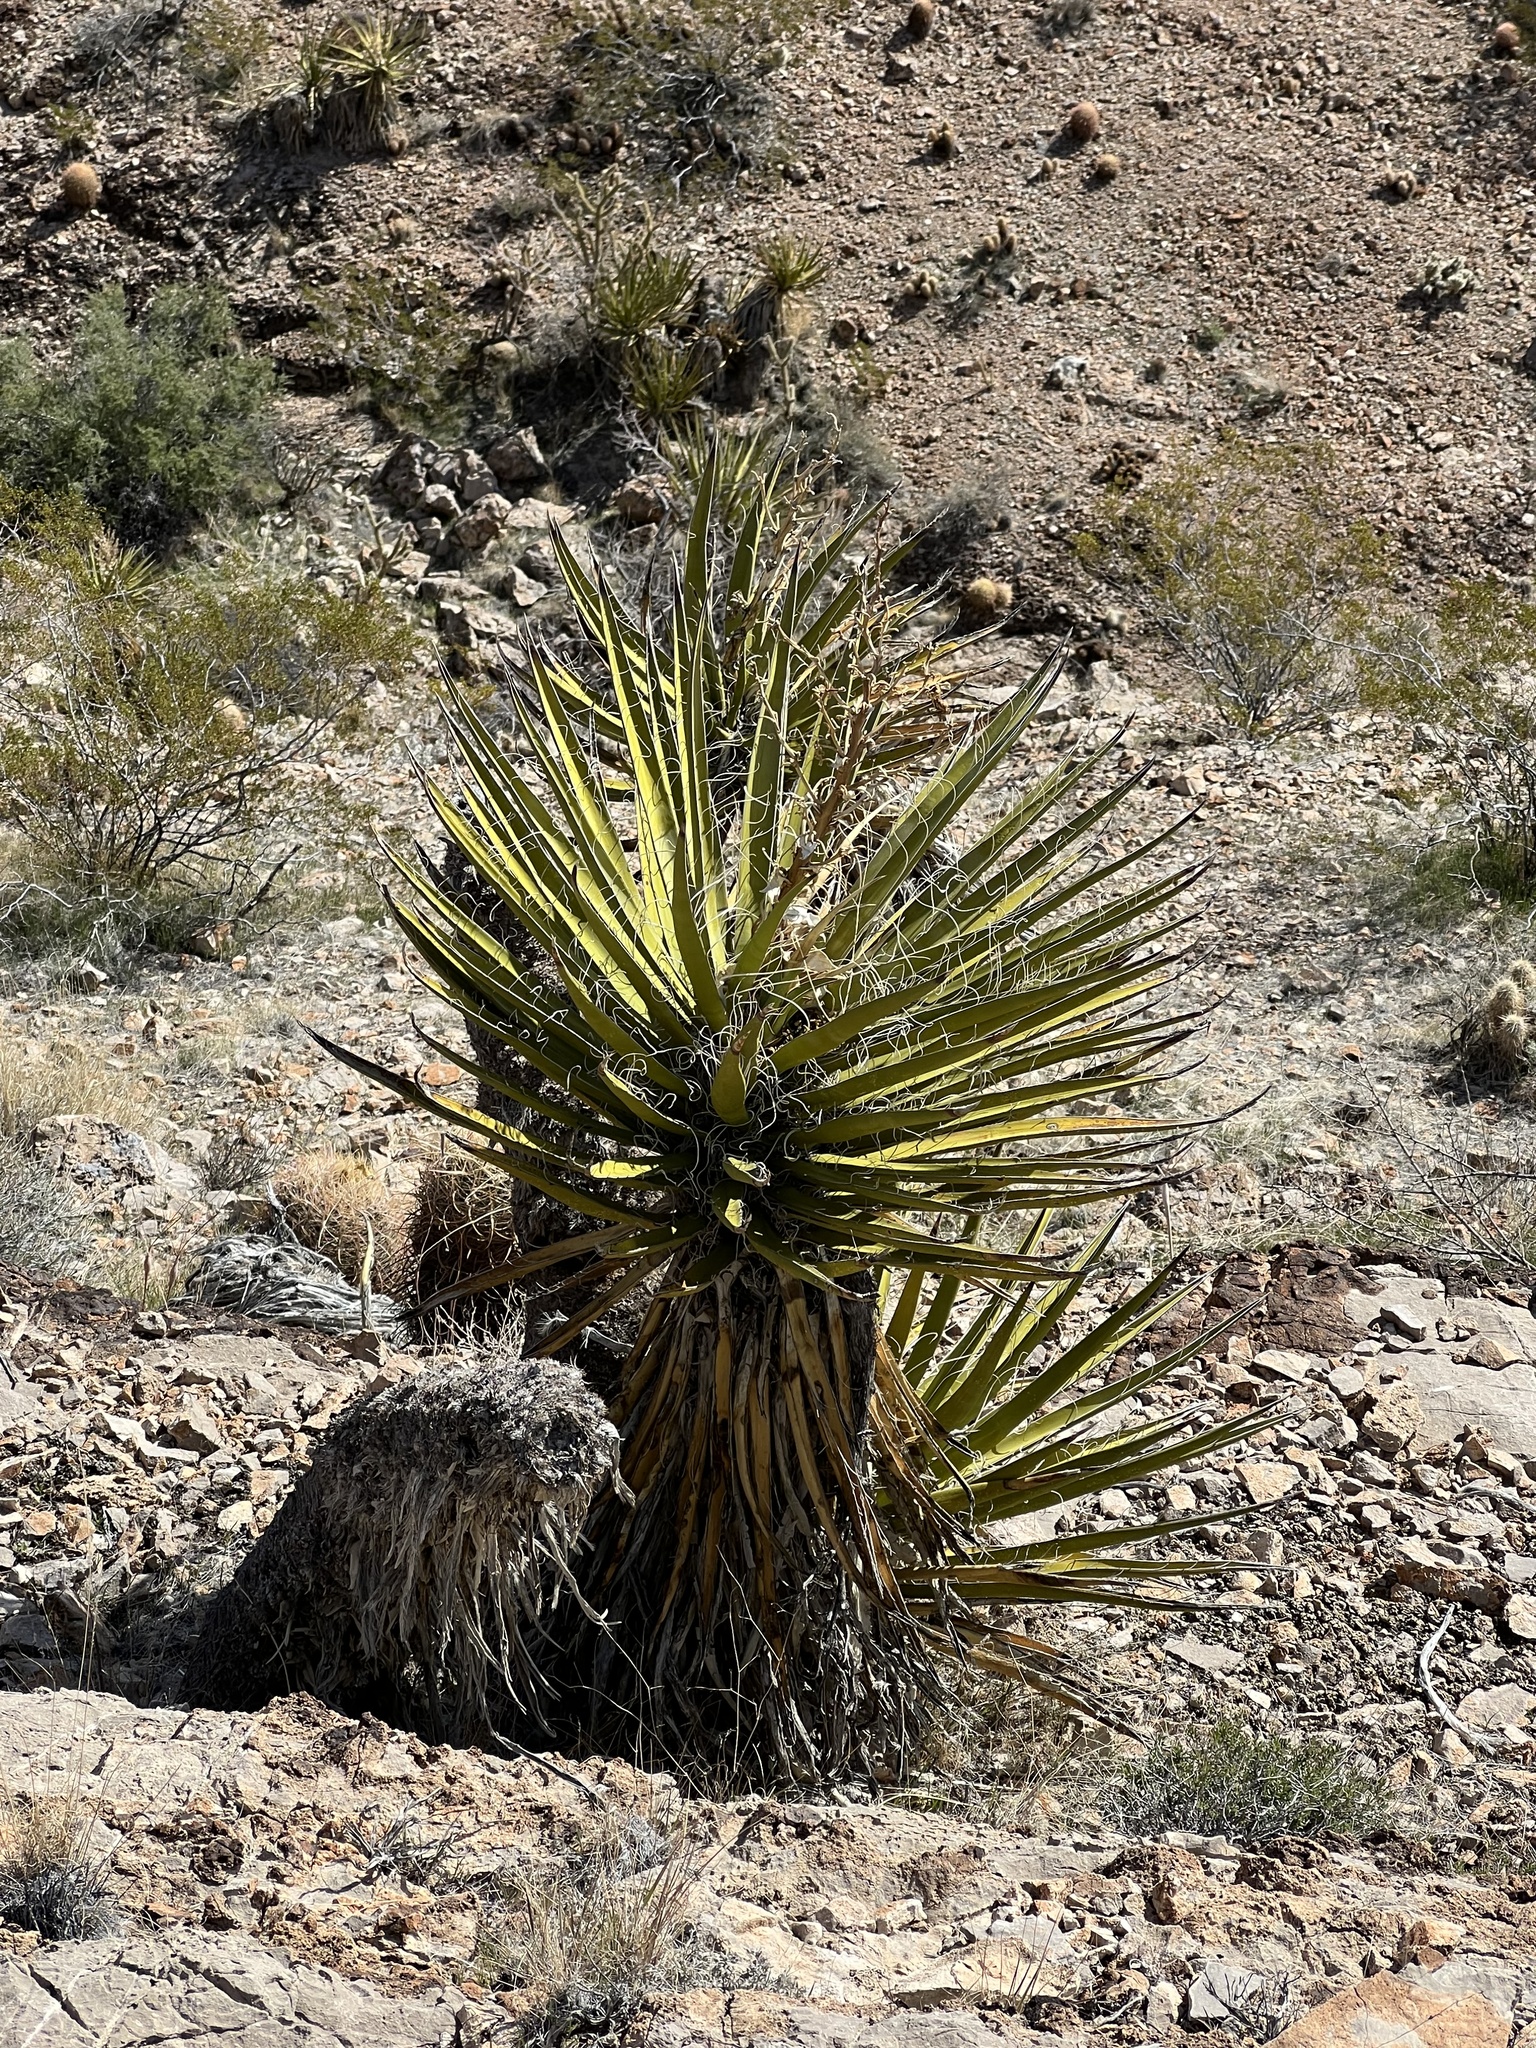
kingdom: Plantae
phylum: Tracheophyta
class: Liliopsida
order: Asparagales
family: Asparagaceae
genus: Yucca
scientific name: Yucca schidigera
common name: Mojave yucca
